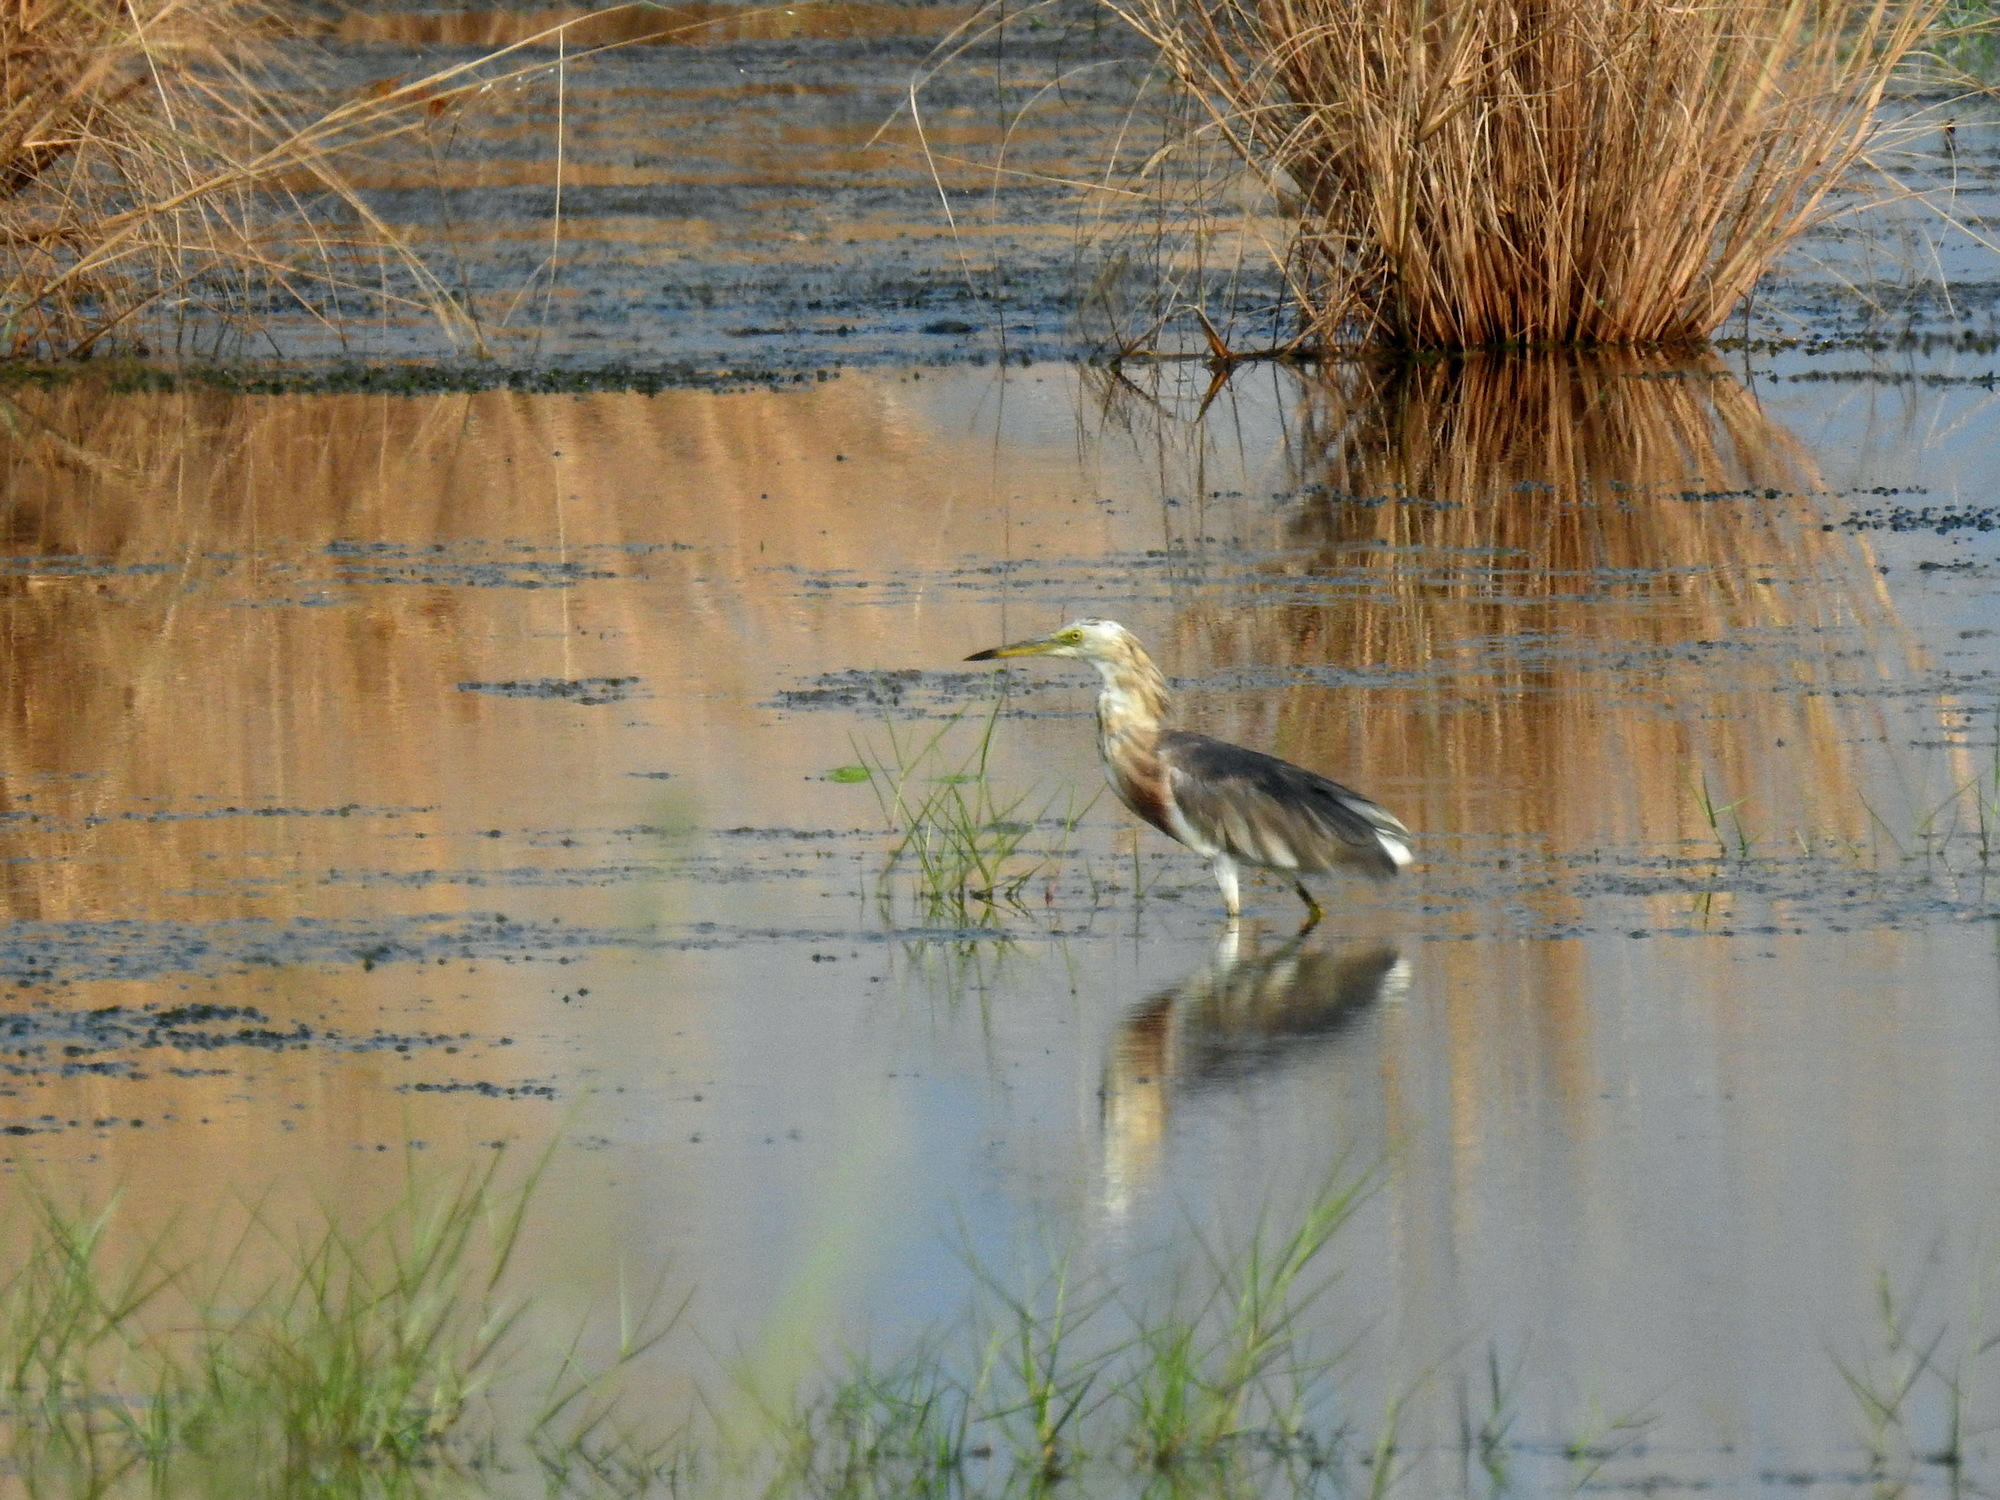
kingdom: Animalia
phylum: Chordata
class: Aves
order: Pelecaniformes
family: Ardeidae
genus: Ardeola
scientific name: Ardeola speciosa
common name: Javan pond heron
